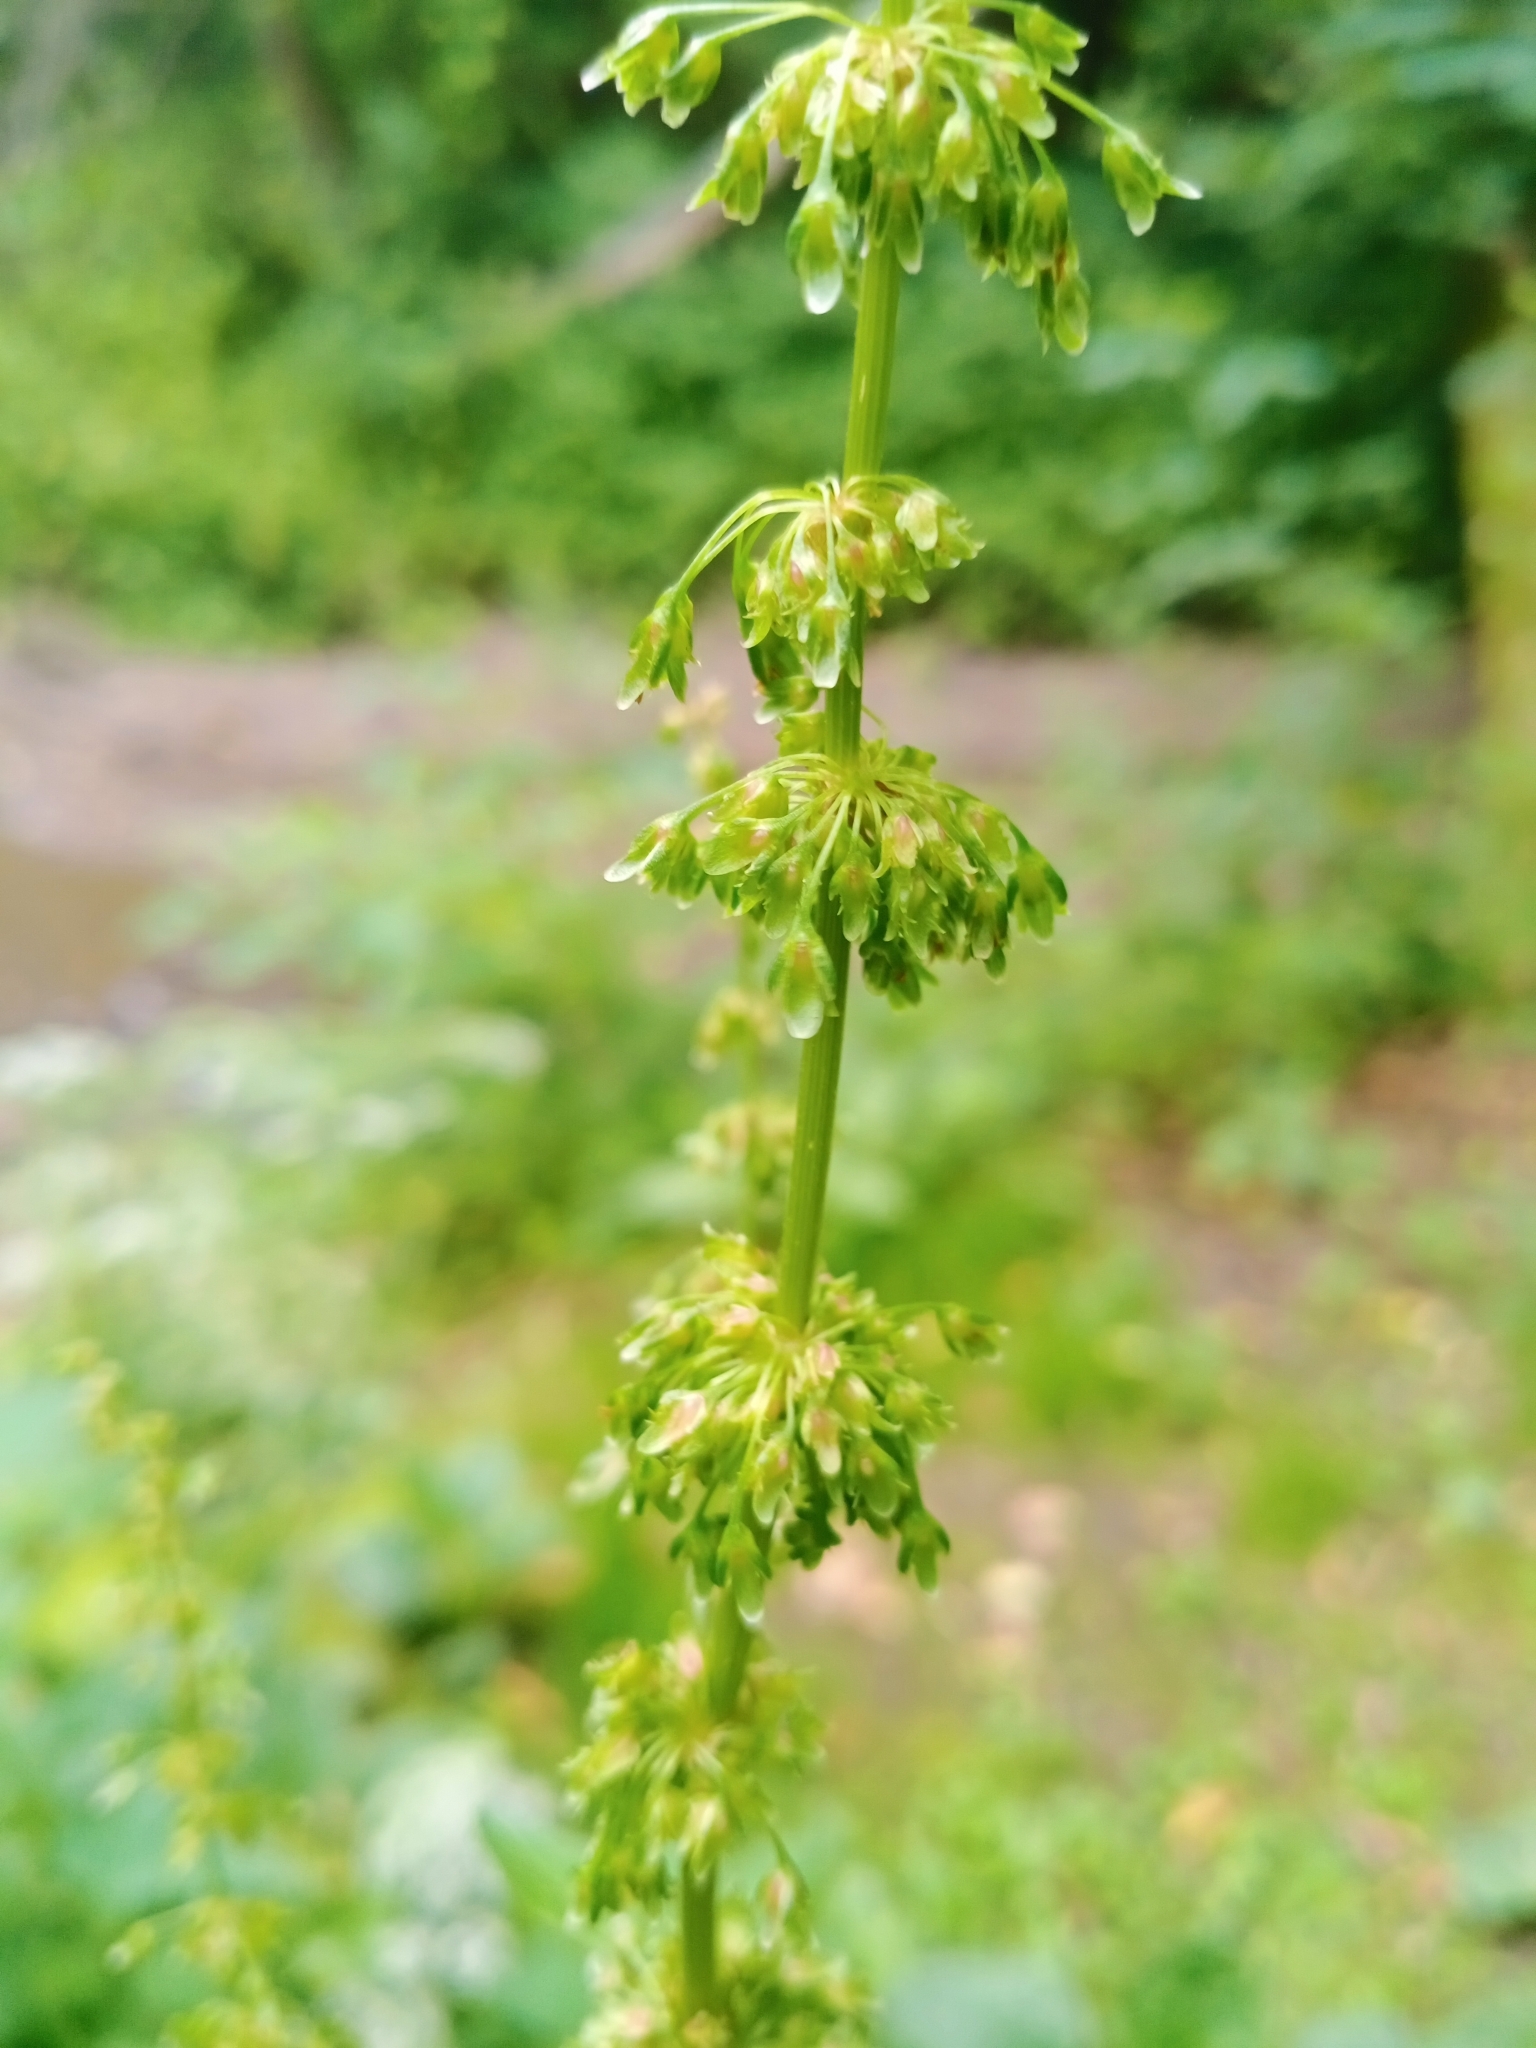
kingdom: Plantae
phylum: Tracheophyta
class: Magnoliopsida
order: Caryophyllales
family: Polygonaceae
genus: Rumex
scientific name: Rumex obtusifolius
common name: Bitter dock
